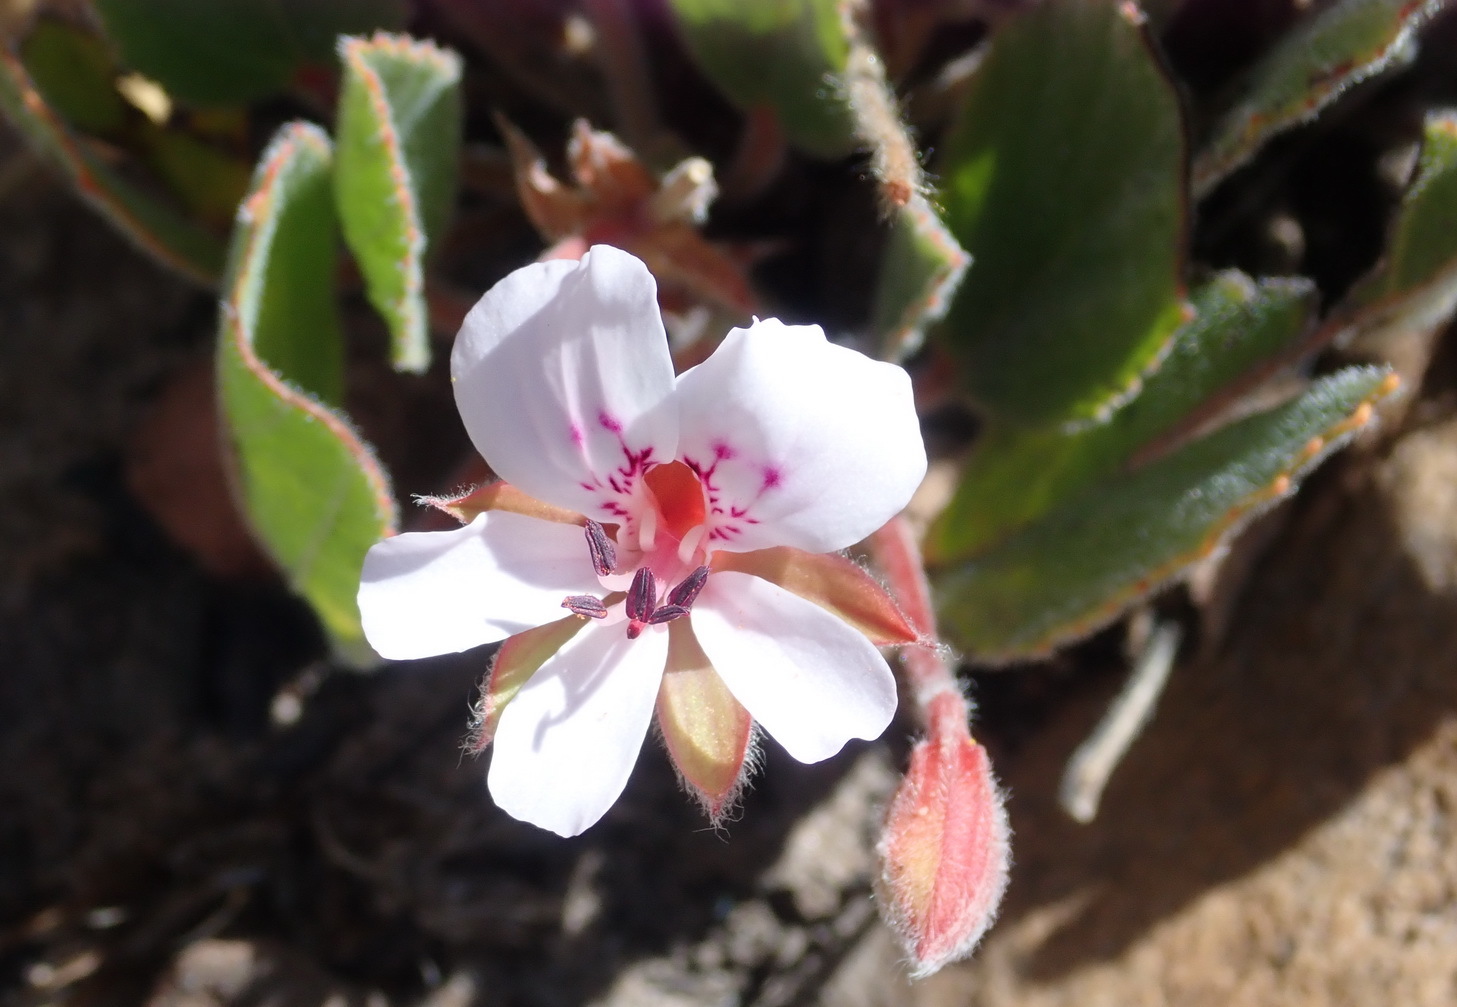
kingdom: Plantae
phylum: Tracheophyta
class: Magnoliopsida
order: Geraniales
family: Geraniaceae
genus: Pelargonium
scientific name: Pelargonium ovale
